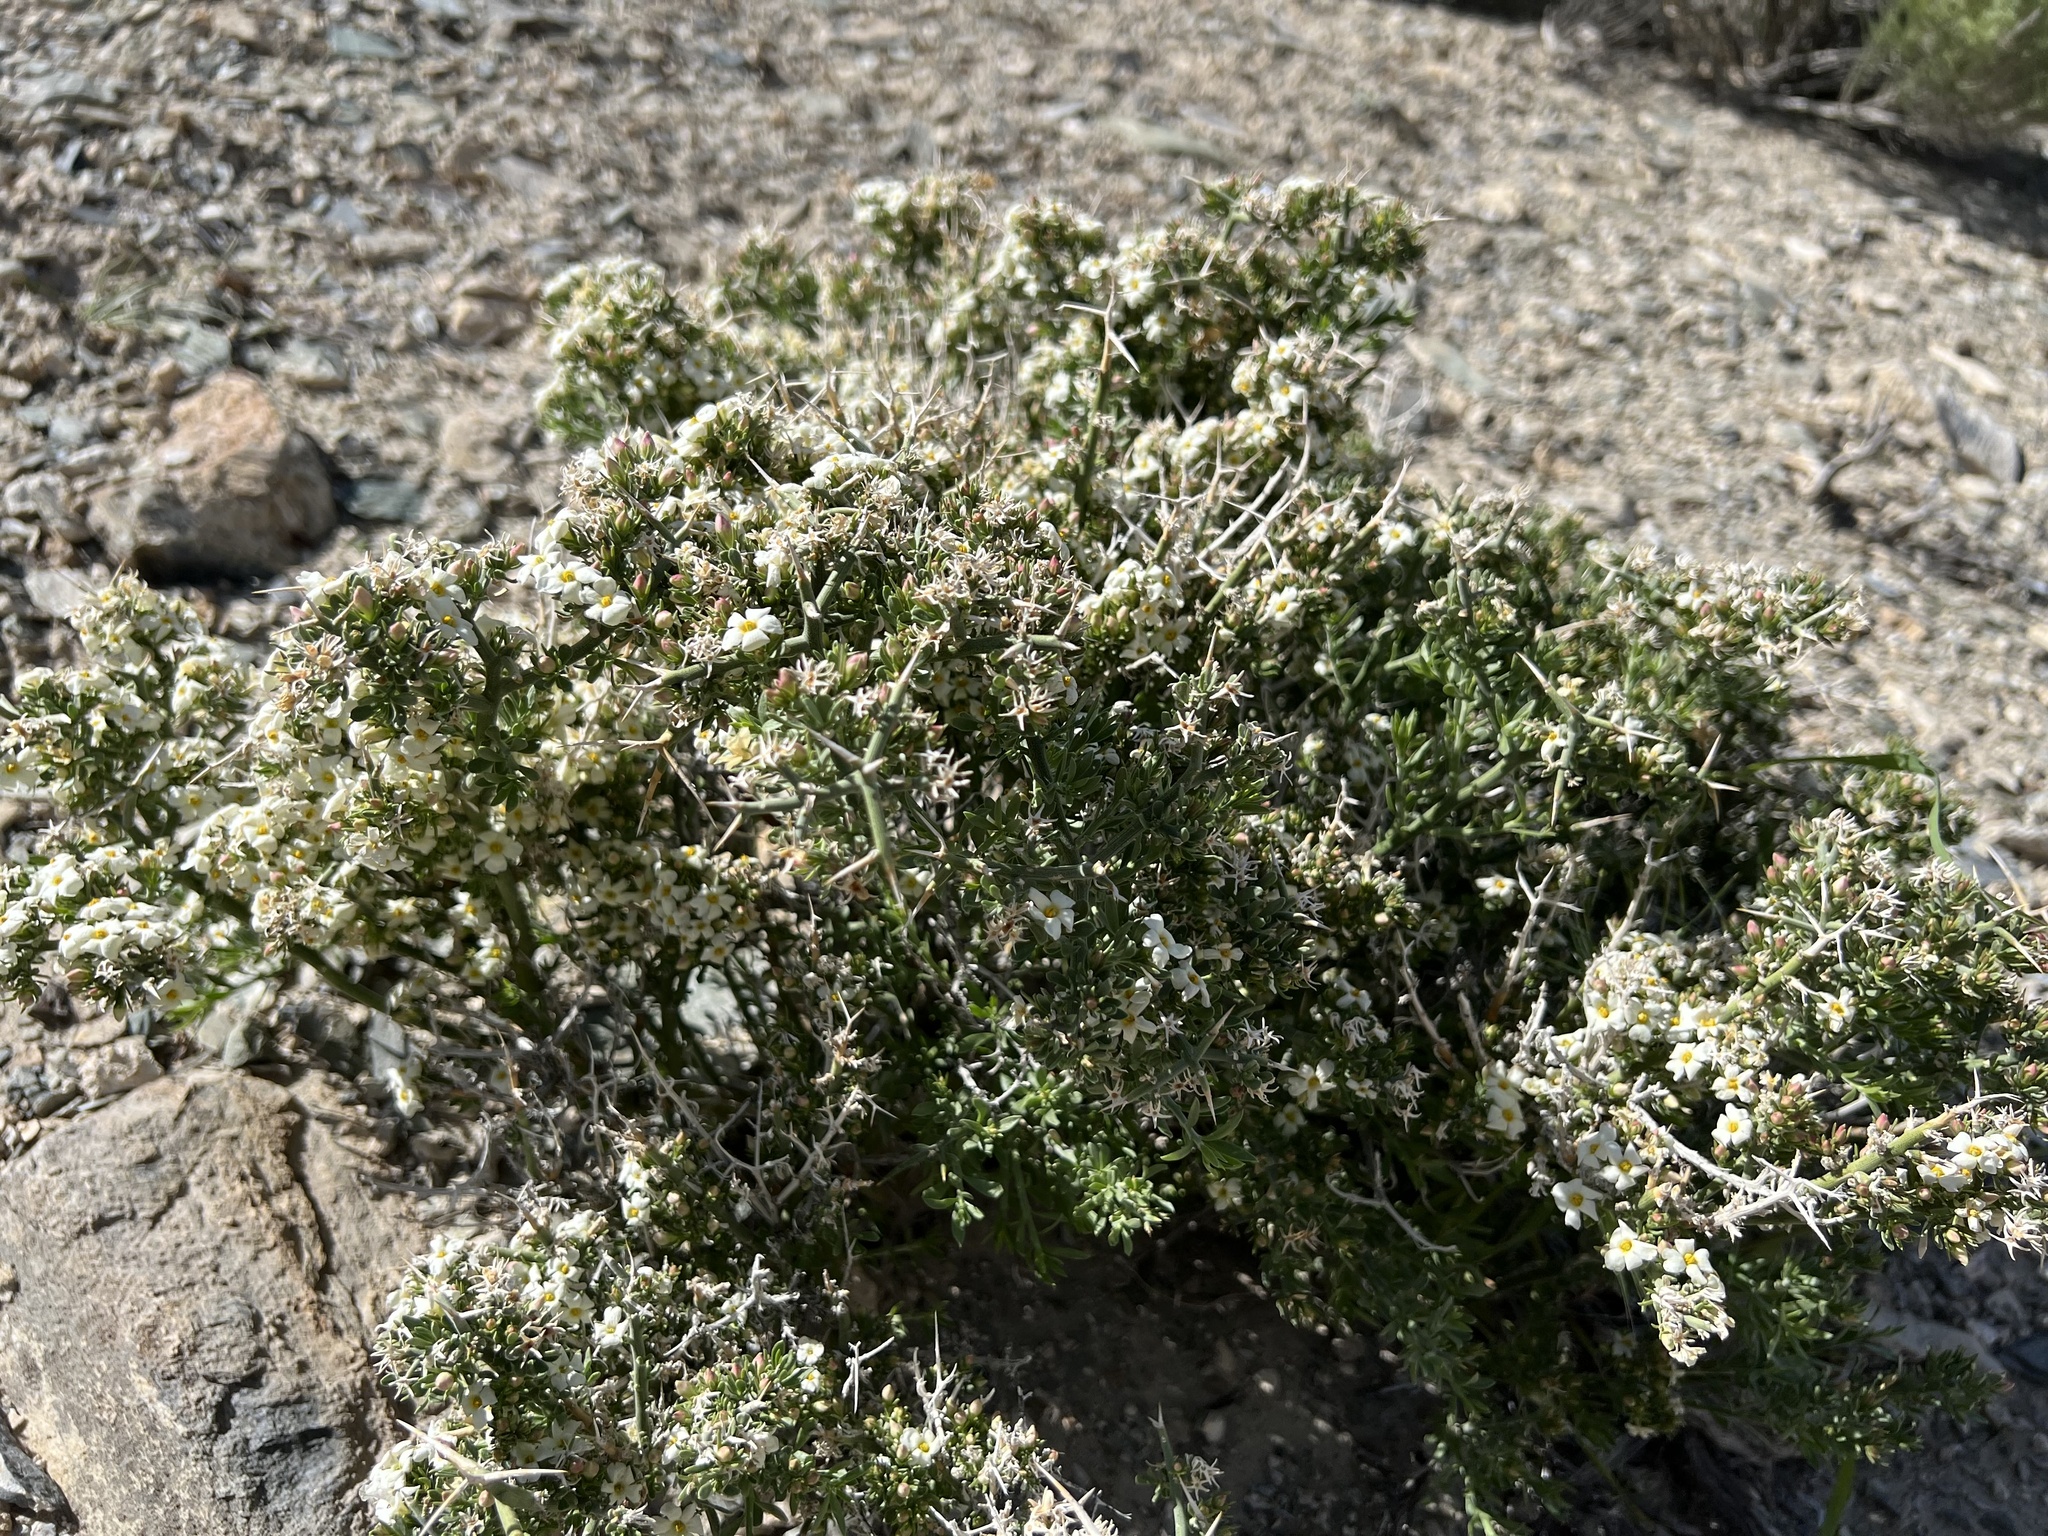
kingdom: Plantae
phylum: Tracheophyta
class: Magnoliopsida
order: Lamiales
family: Oleaceae
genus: Menodora
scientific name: Menodora spinescens
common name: Spiny menodora
